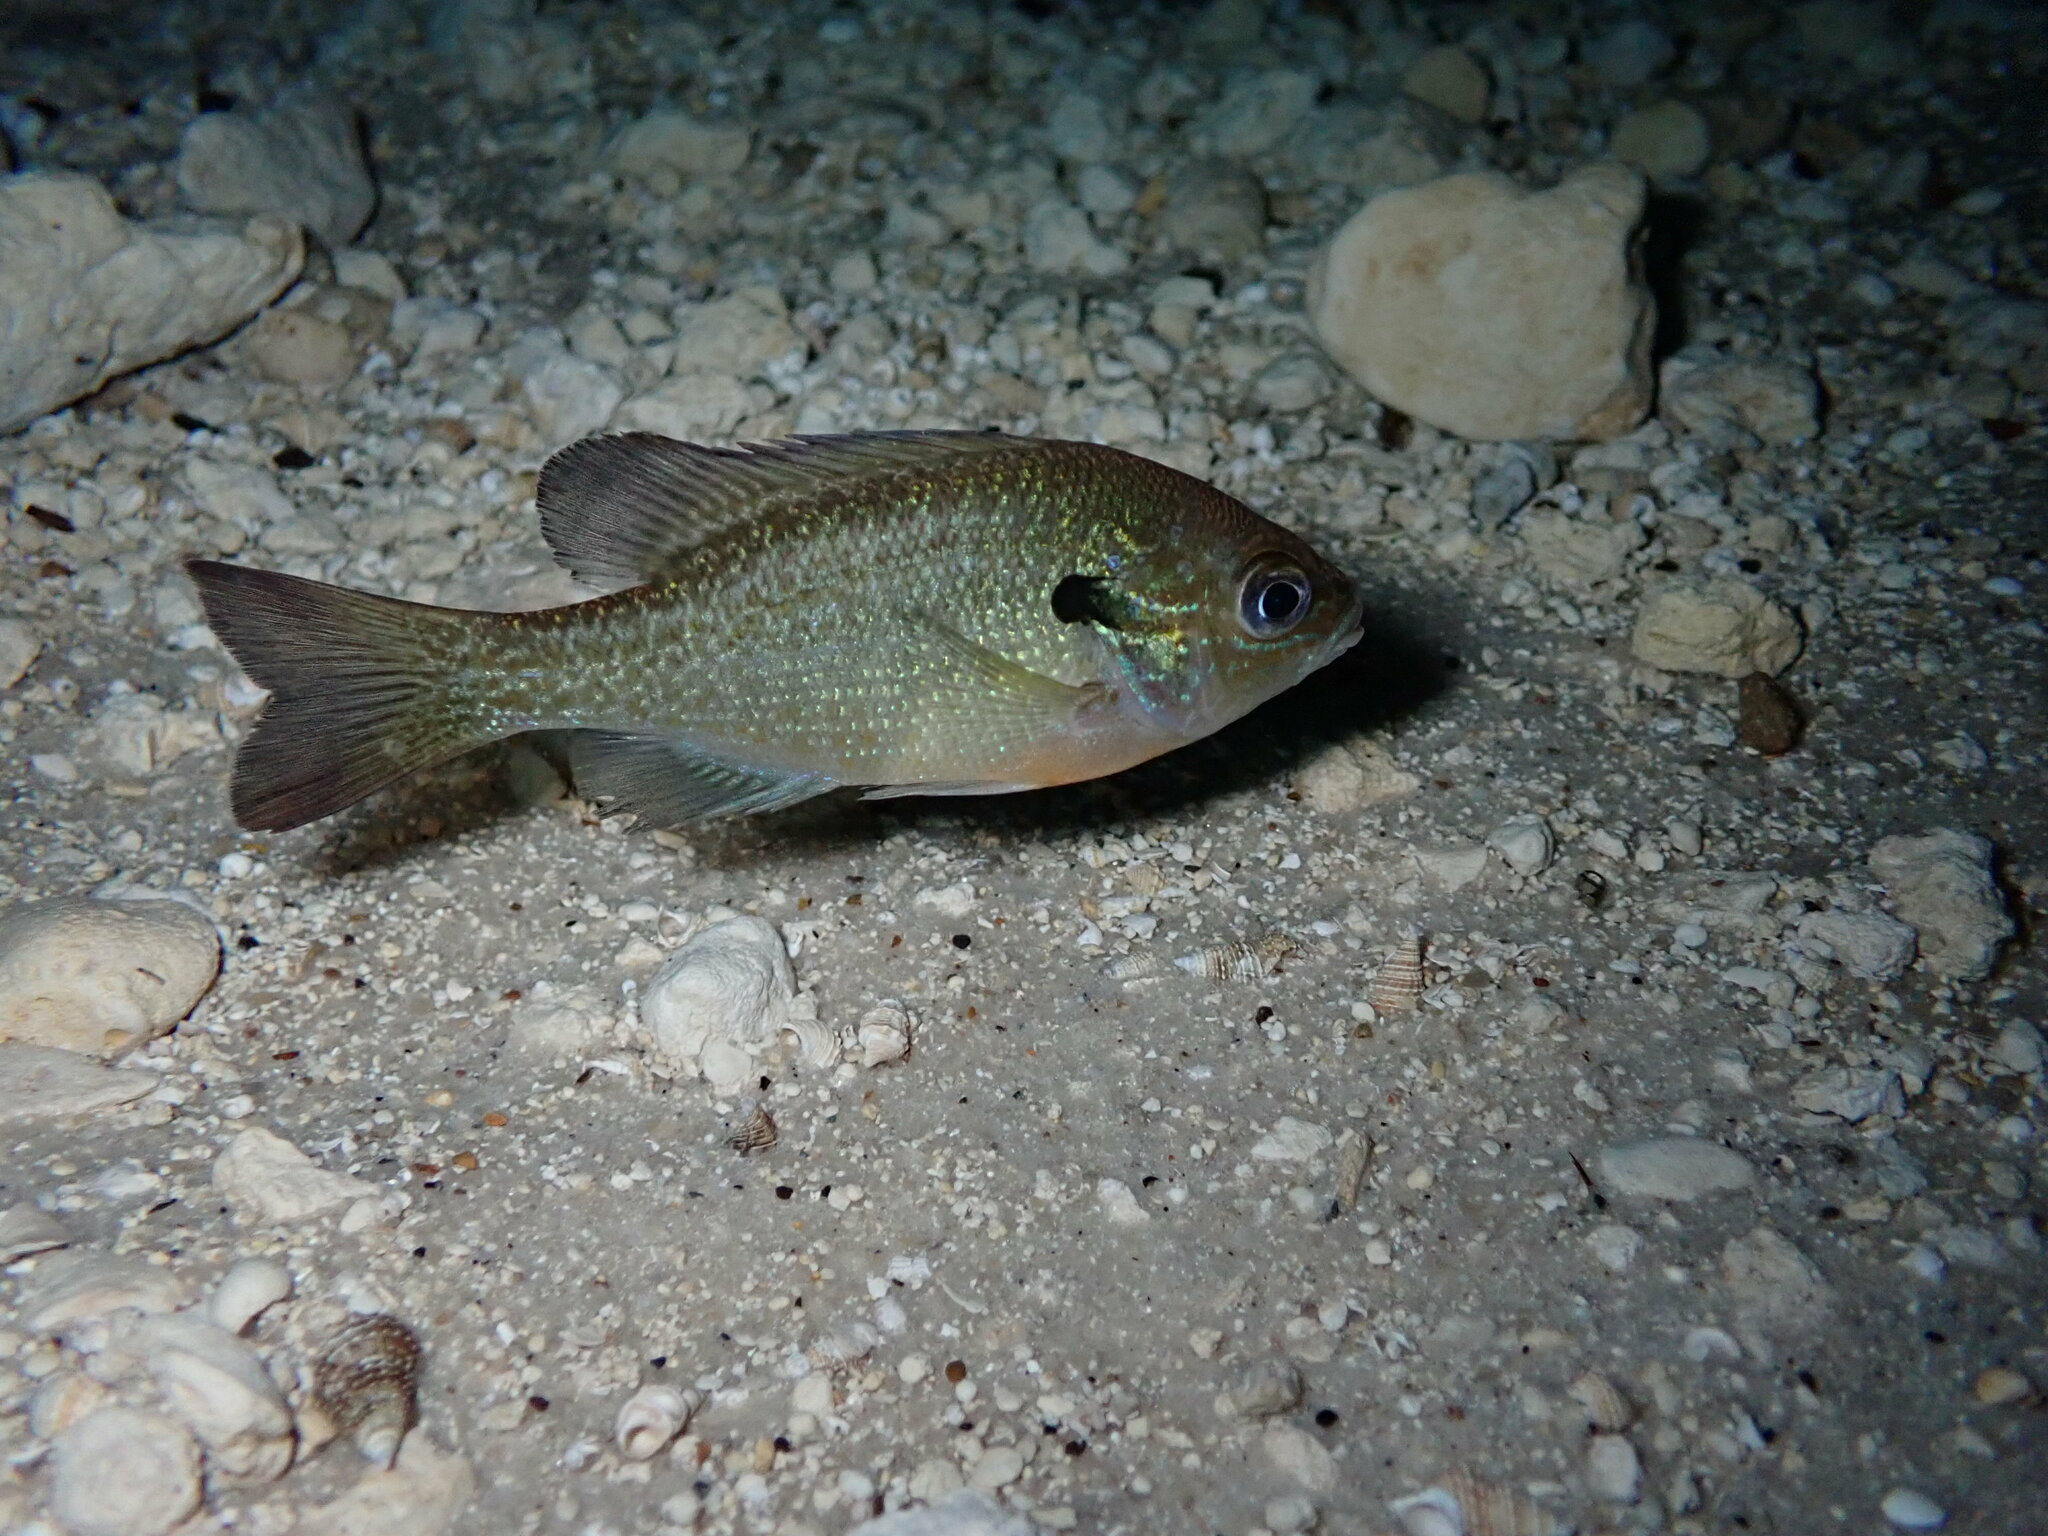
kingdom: Animalia
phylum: Chordata
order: Perciformes
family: Centrarchidae
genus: Lepomis
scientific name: Lepomis auritus
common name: Redbreast sunfish
